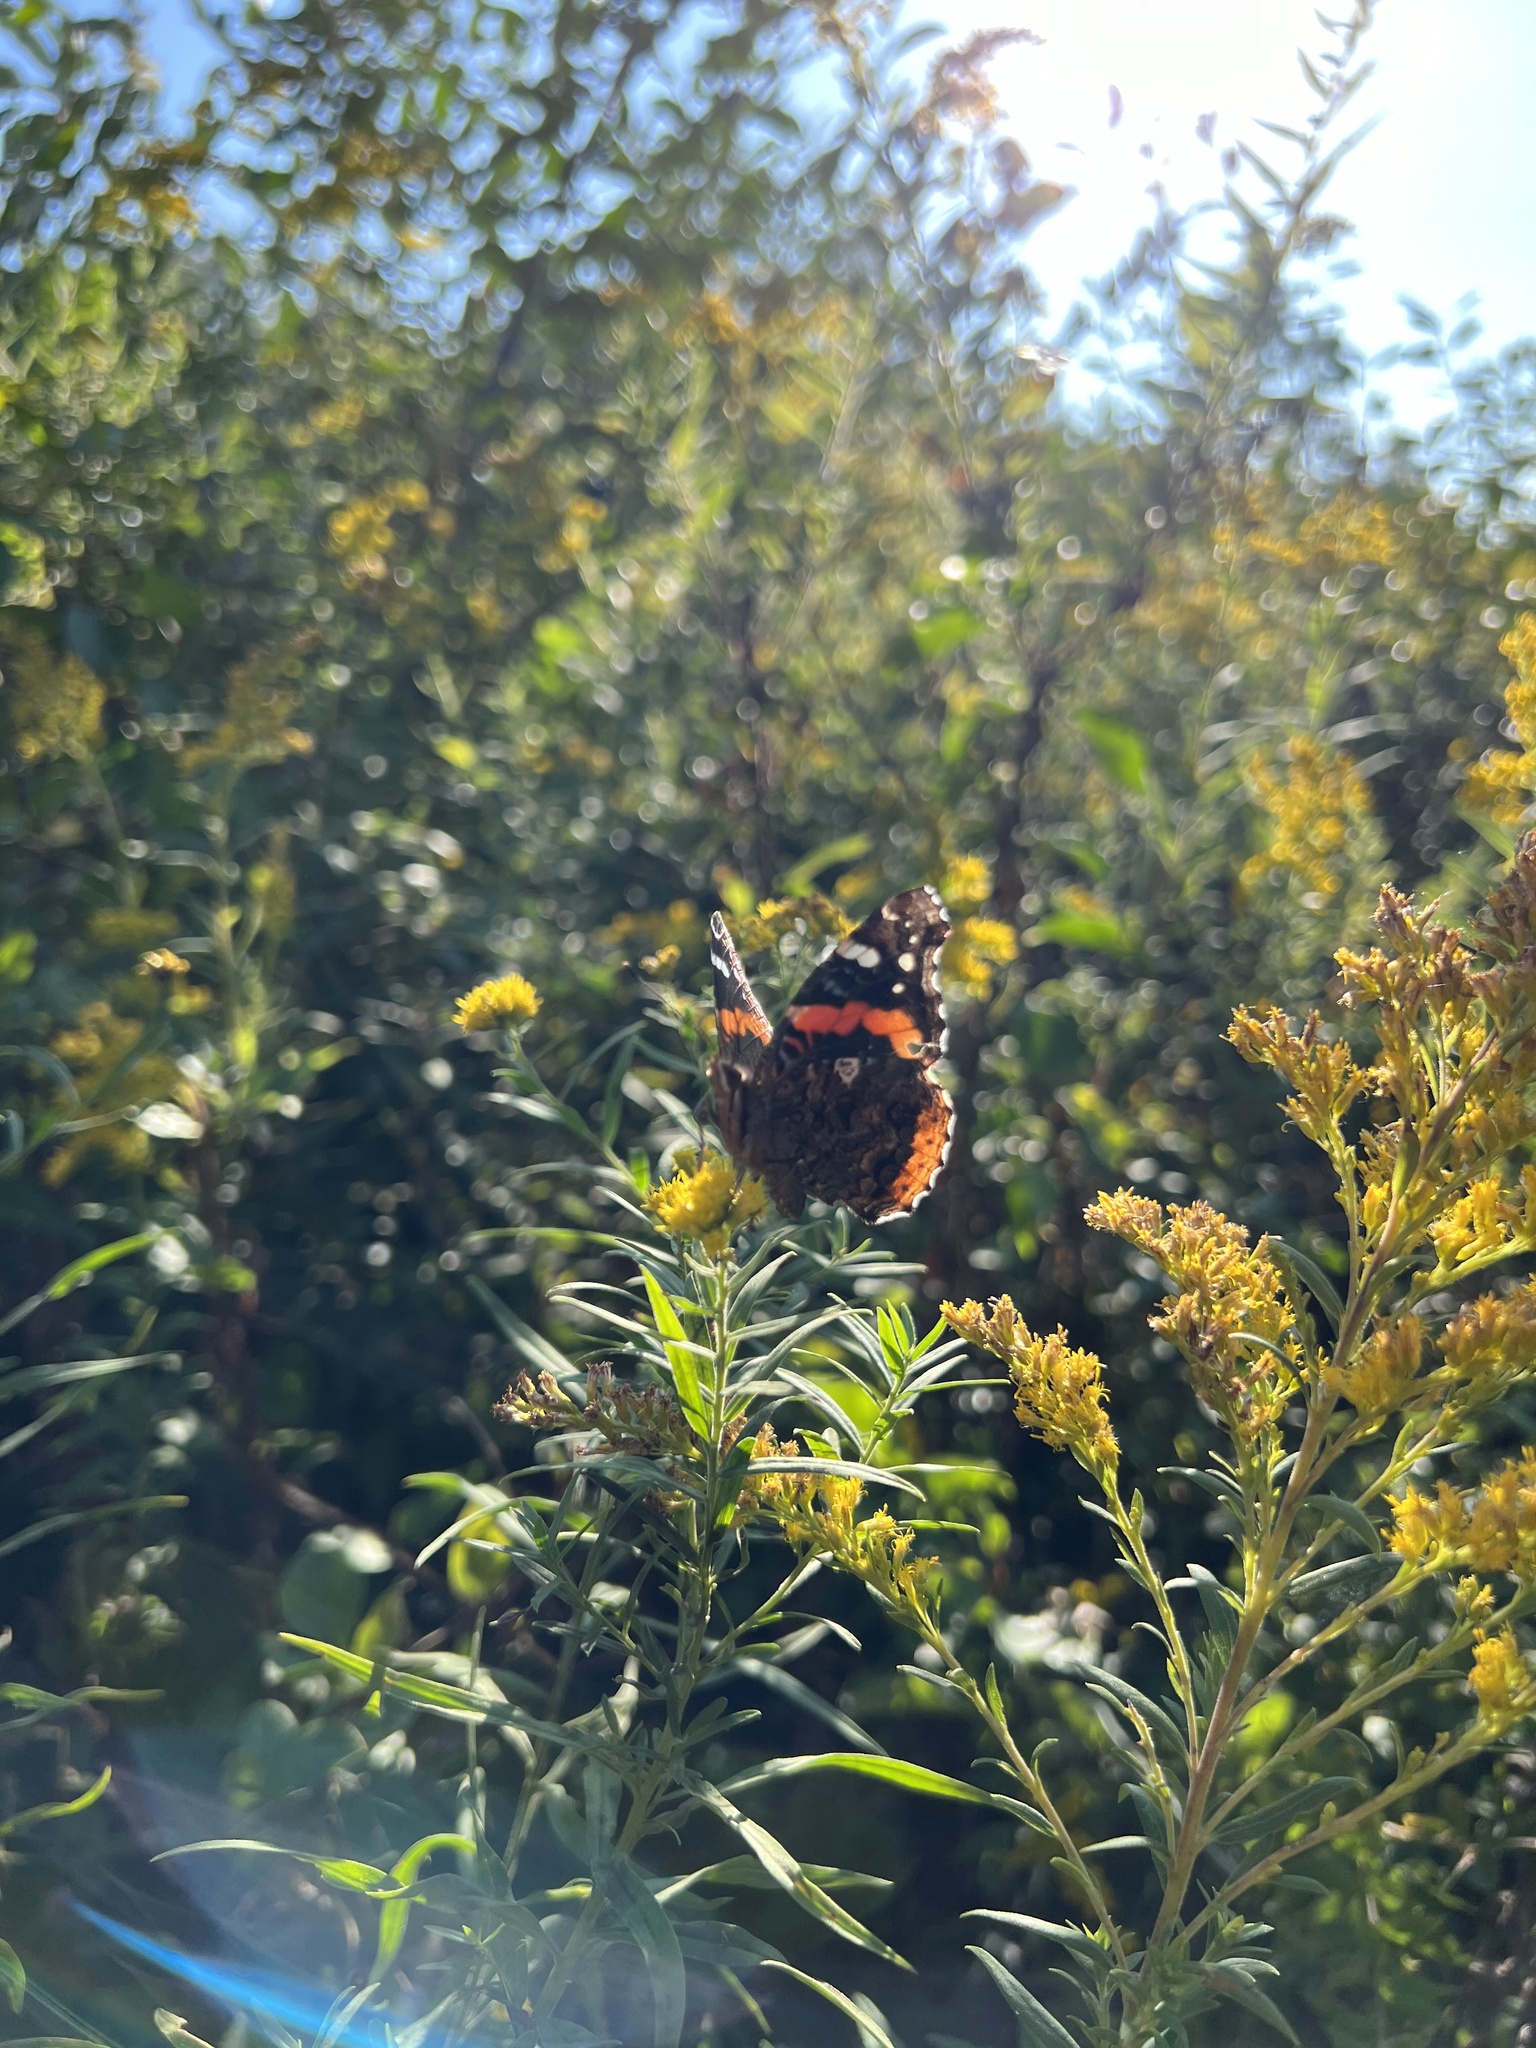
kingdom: Animalia
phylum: Arthropoda
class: Insecta
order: Lepidoptera
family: Nymphalidae
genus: Vanessa
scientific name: Vanessa atalanta
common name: Red admiral
